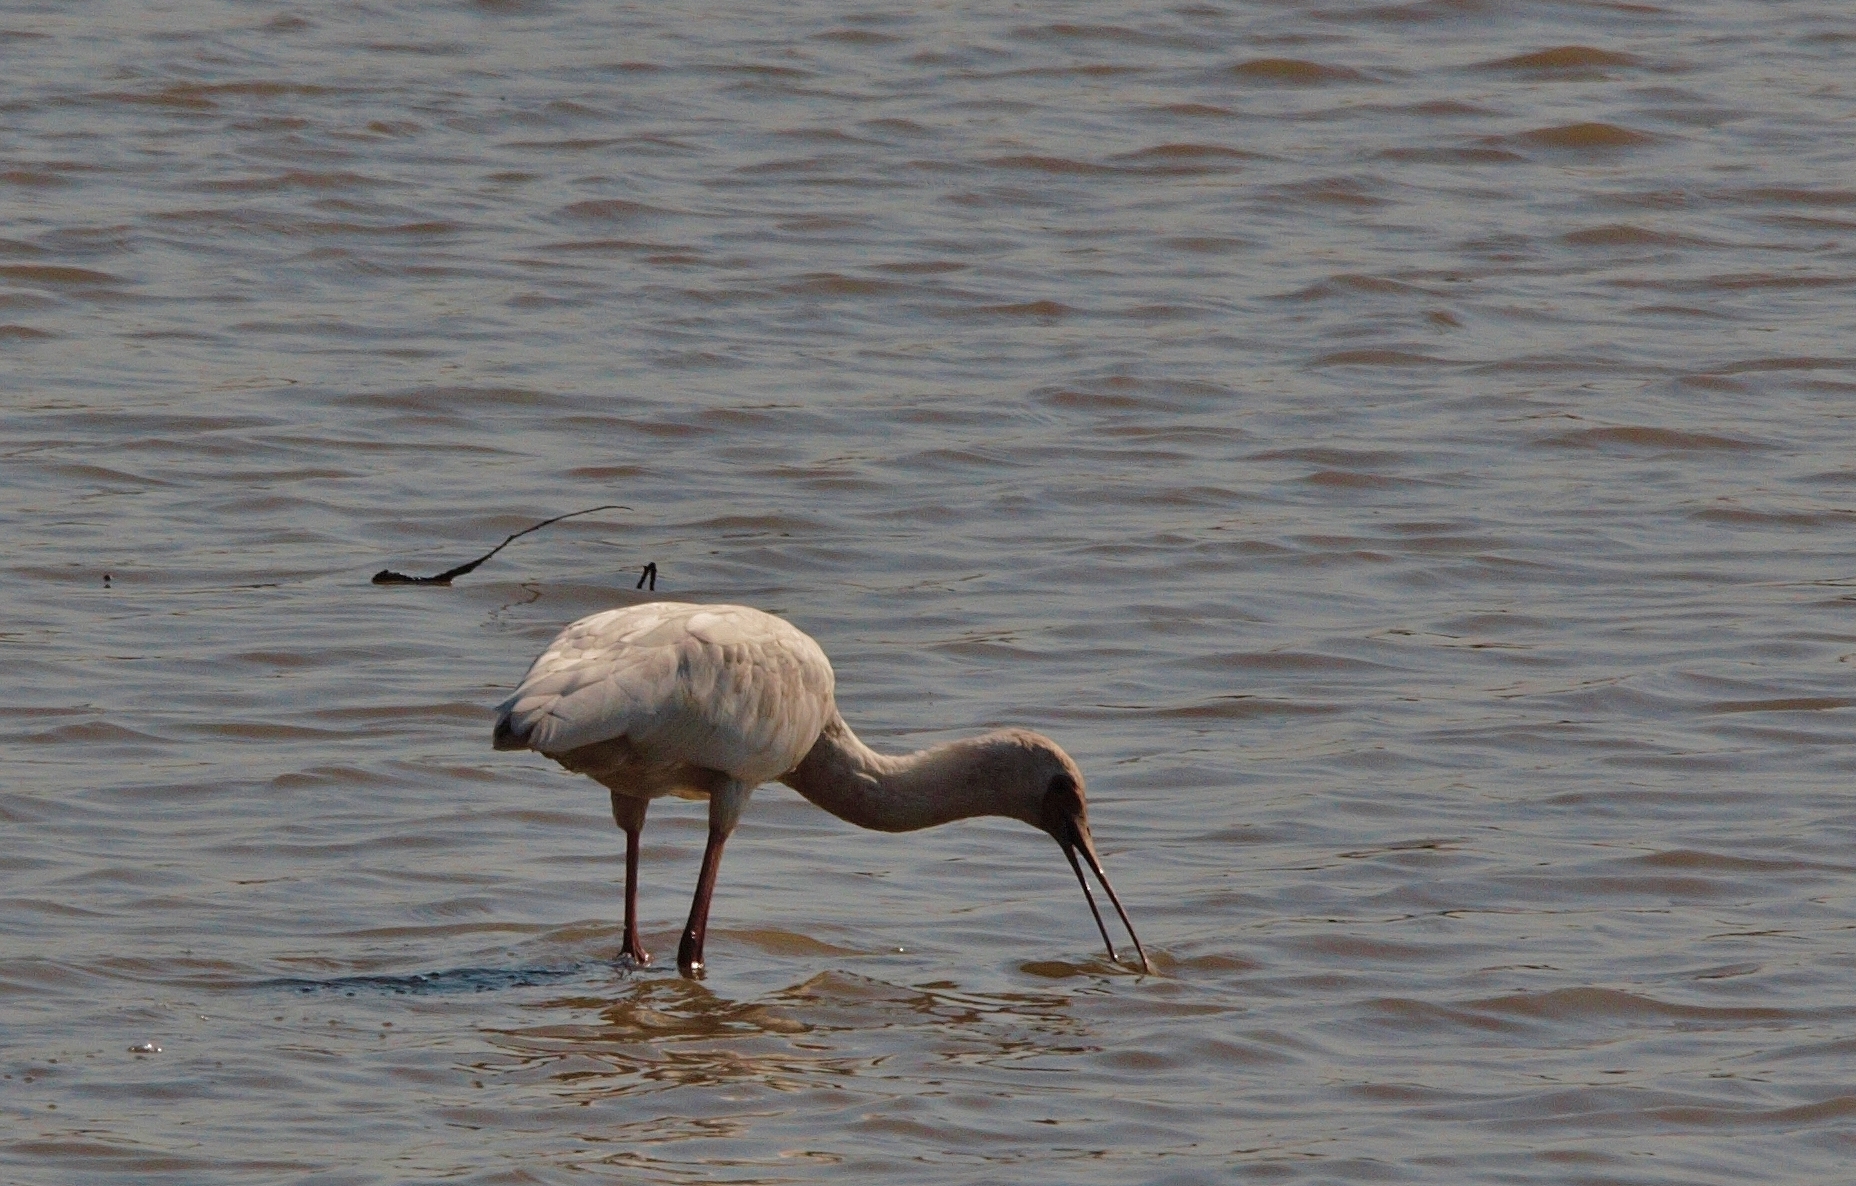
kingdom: Animalia
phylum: Chordata
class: Aves
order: Pelecaniformes
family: Threskiornithidae
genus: Platalea
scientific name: Platalea alba
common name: African spoonbill
